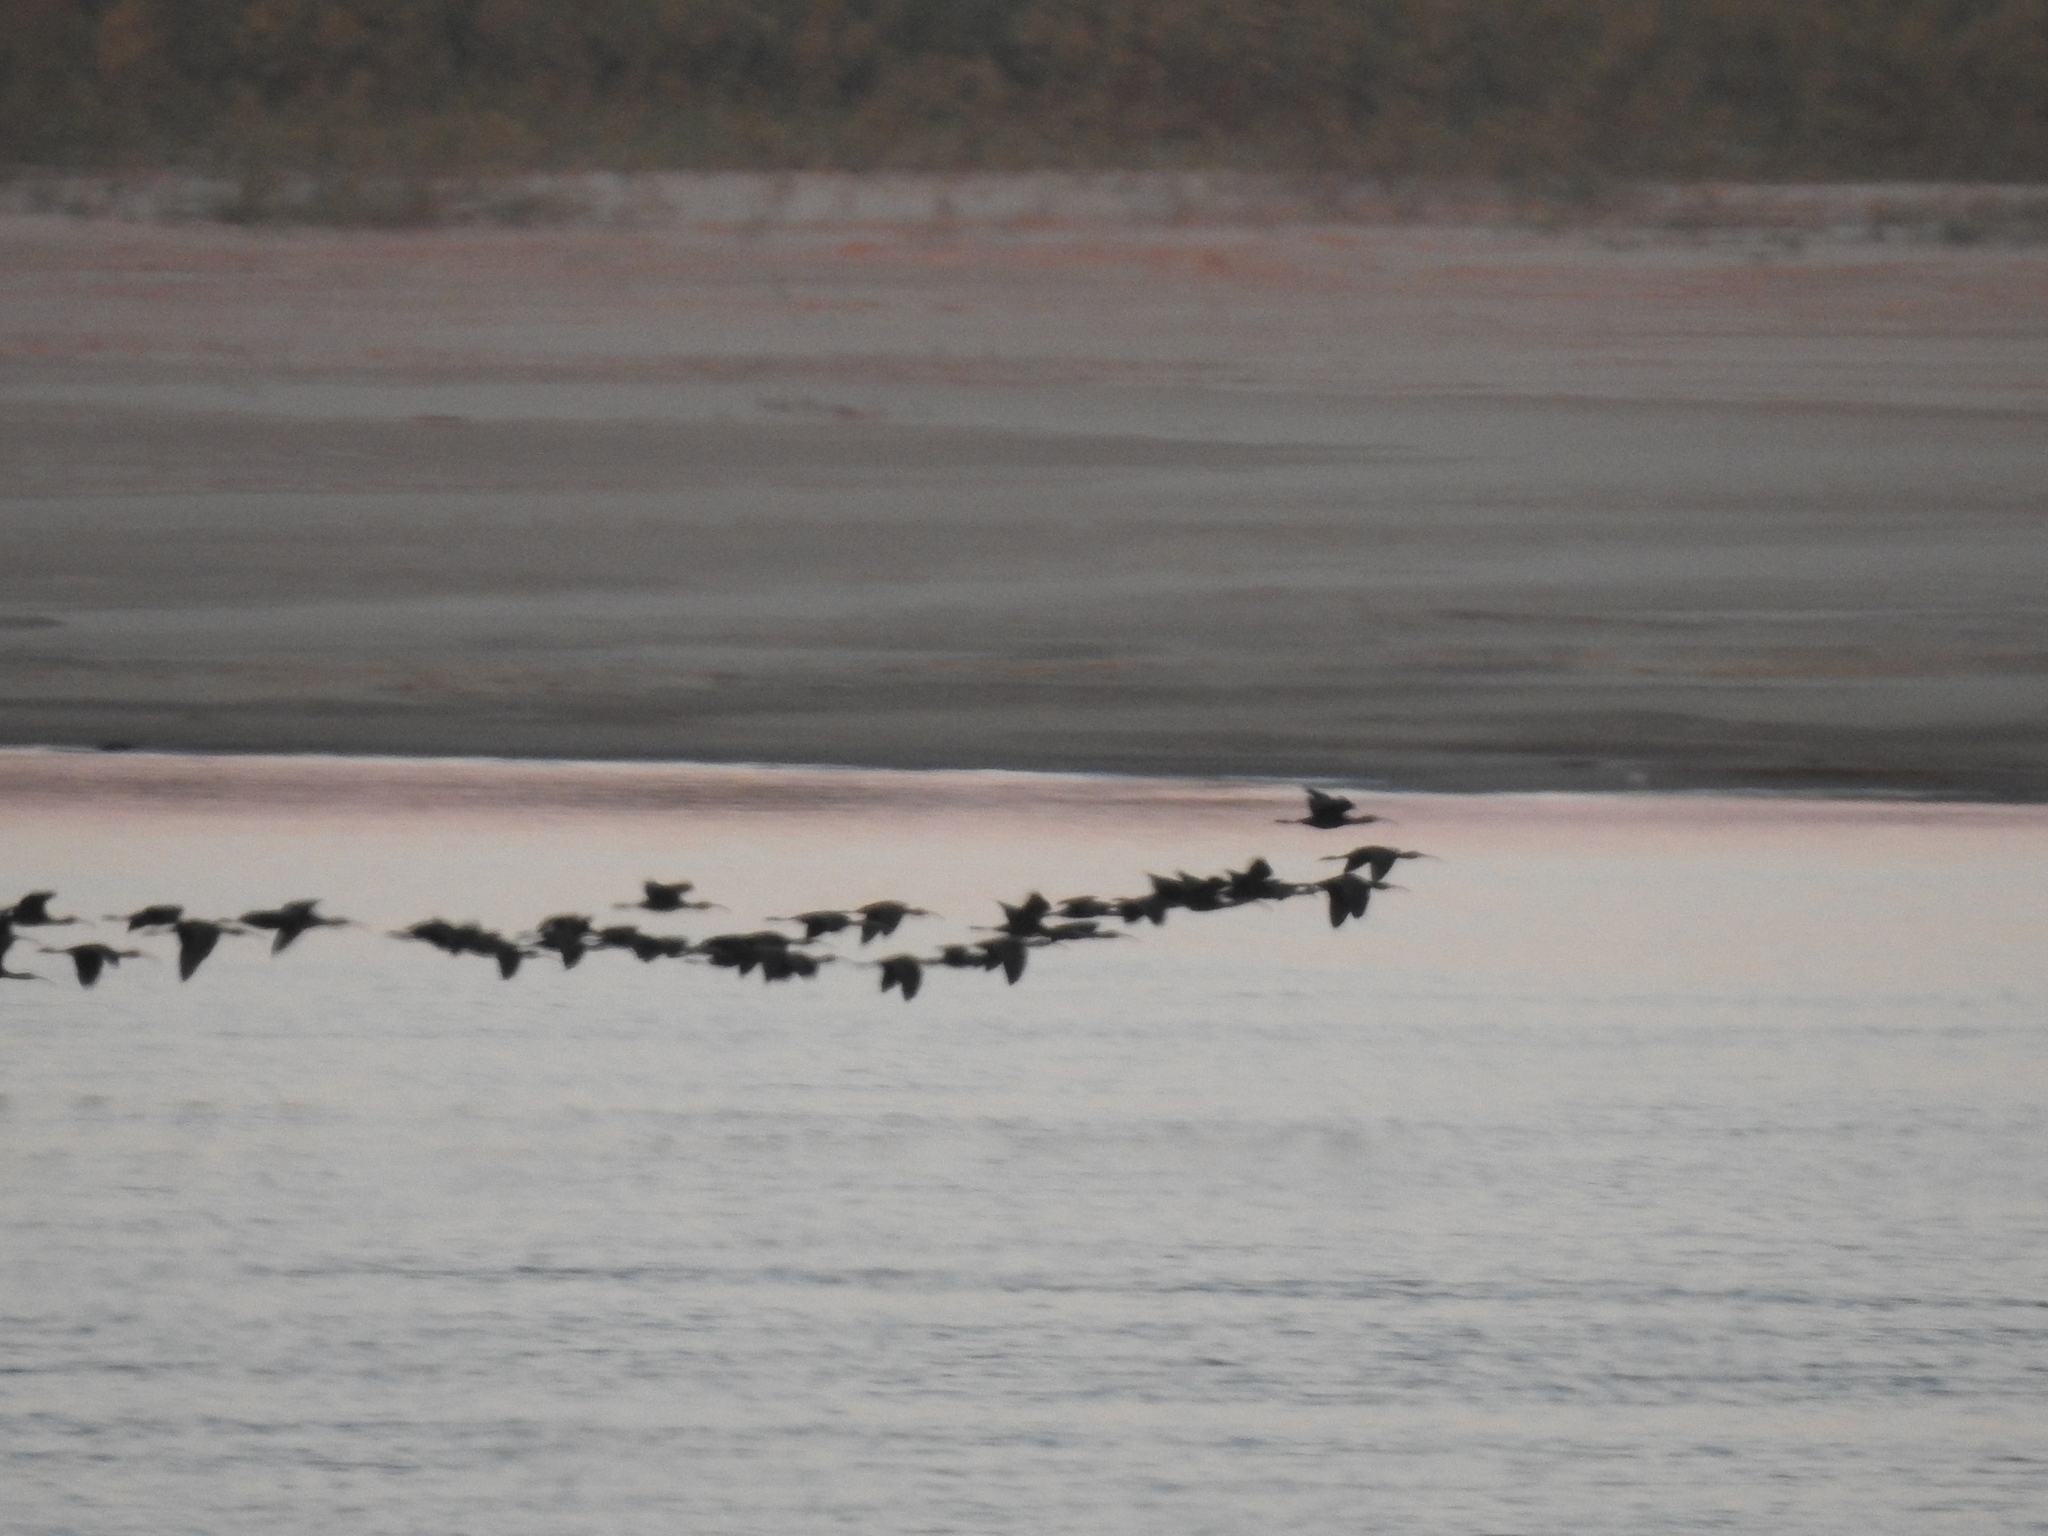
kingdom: Animalia
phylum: Chordata
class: Aves
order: Pelecaniformes
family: Threskiornithidae
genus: Plegadis
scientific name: Plegadis chihi
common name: White-faced ibis
